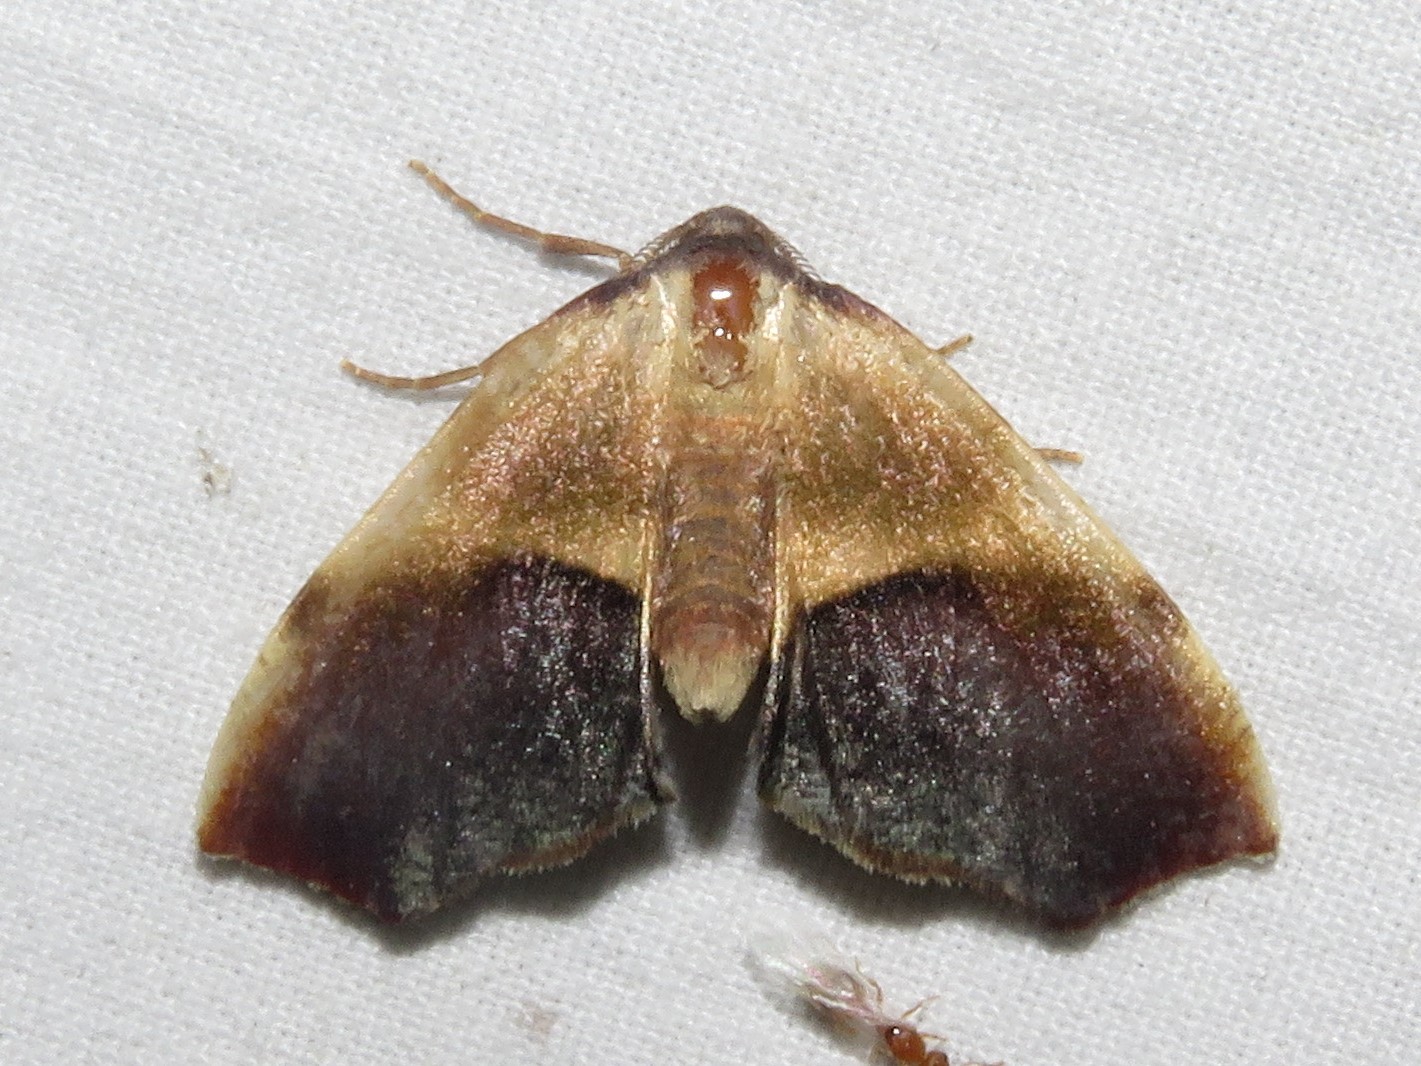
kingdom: Animalia
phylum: Arthropoda
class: Insecta
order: Lepidoptera
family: Geometridae
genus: Plagodis
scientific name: Plagodis kuetzingi
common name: Purple plagodis
